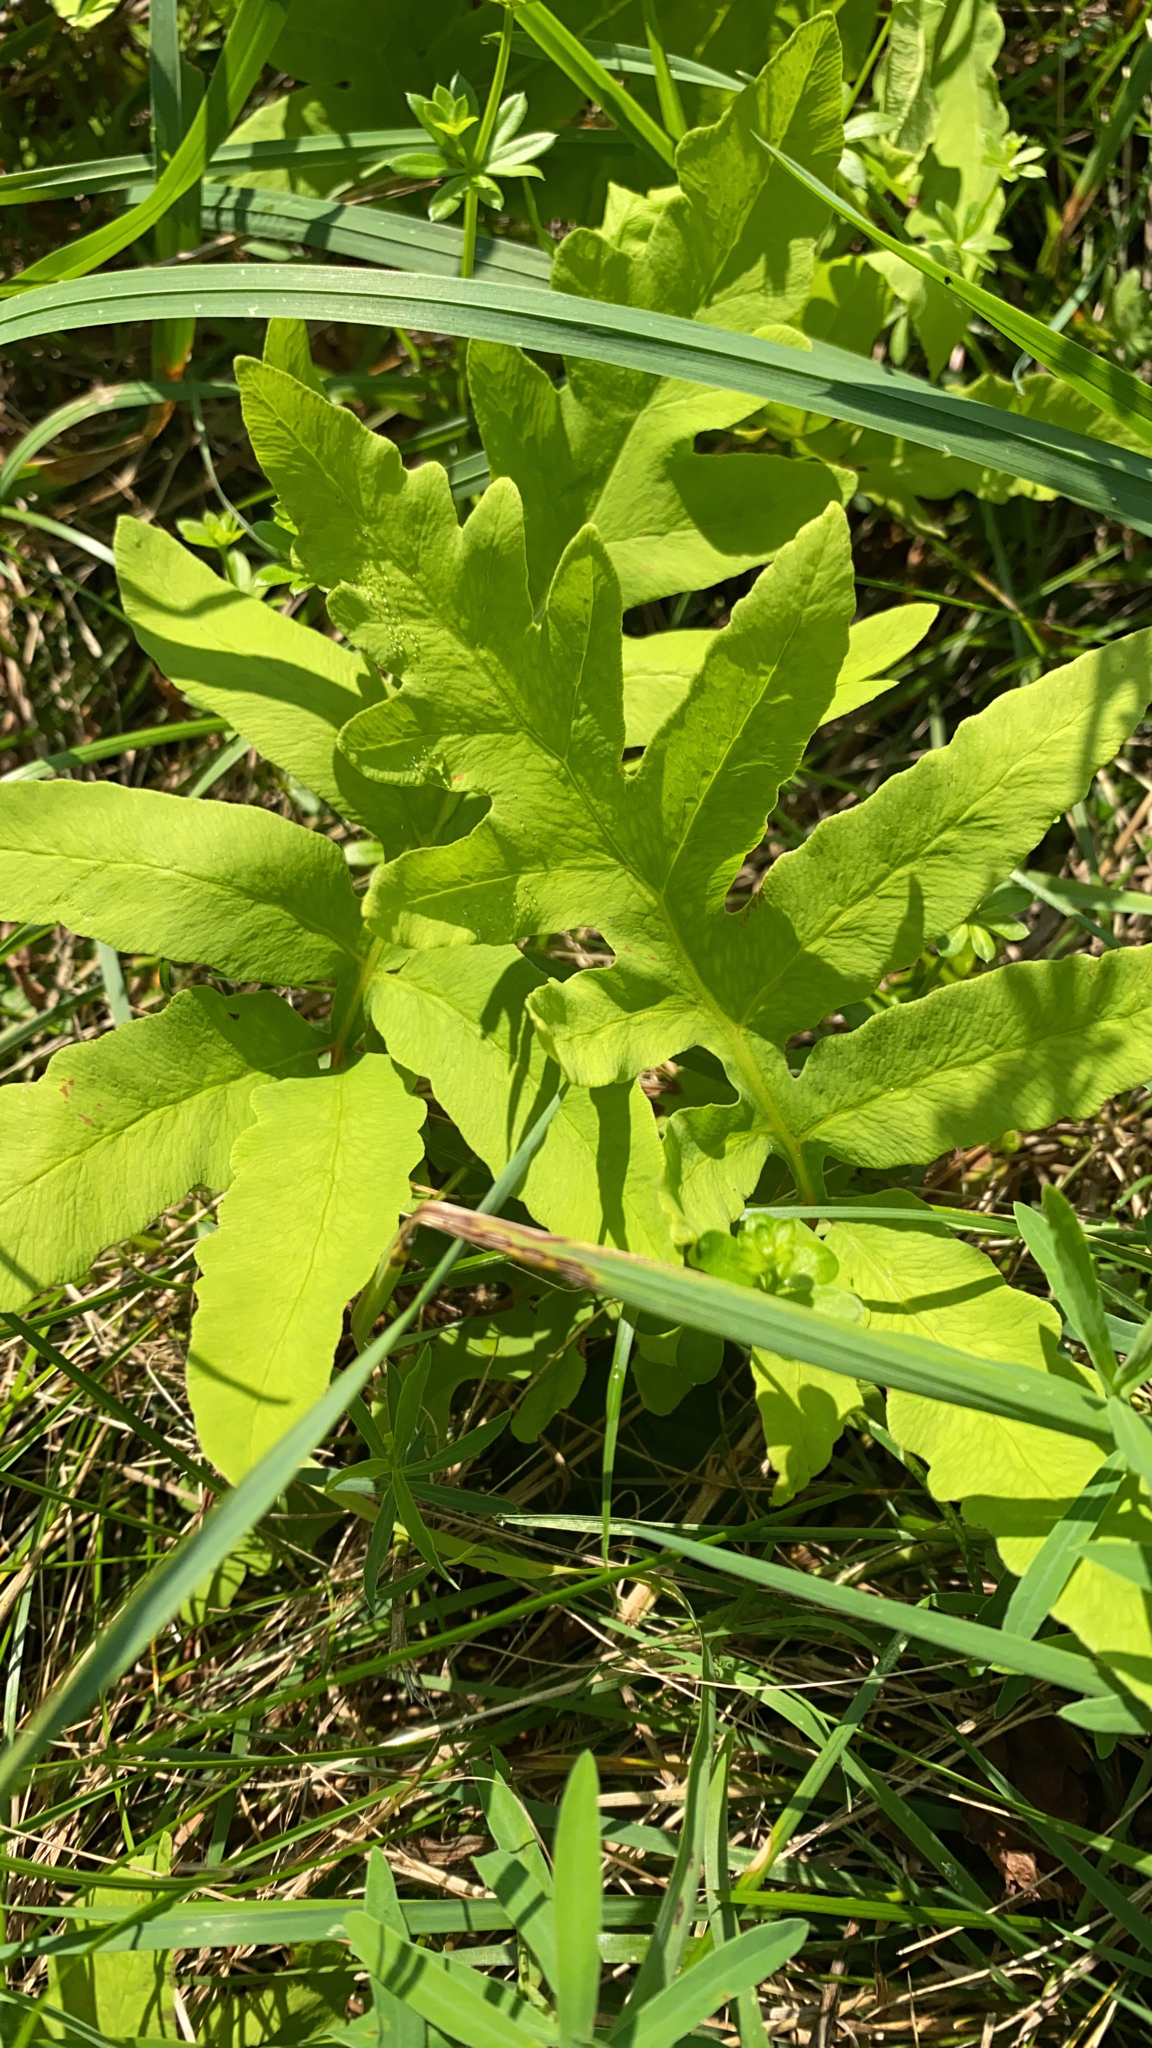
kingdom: Plantae
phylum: Tracheophyta
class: Polypodiopsida
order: Polypodiales
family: Onocleaceae
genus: Onoclea
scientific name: Onoclea sensibilis
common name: Sensitive fern
